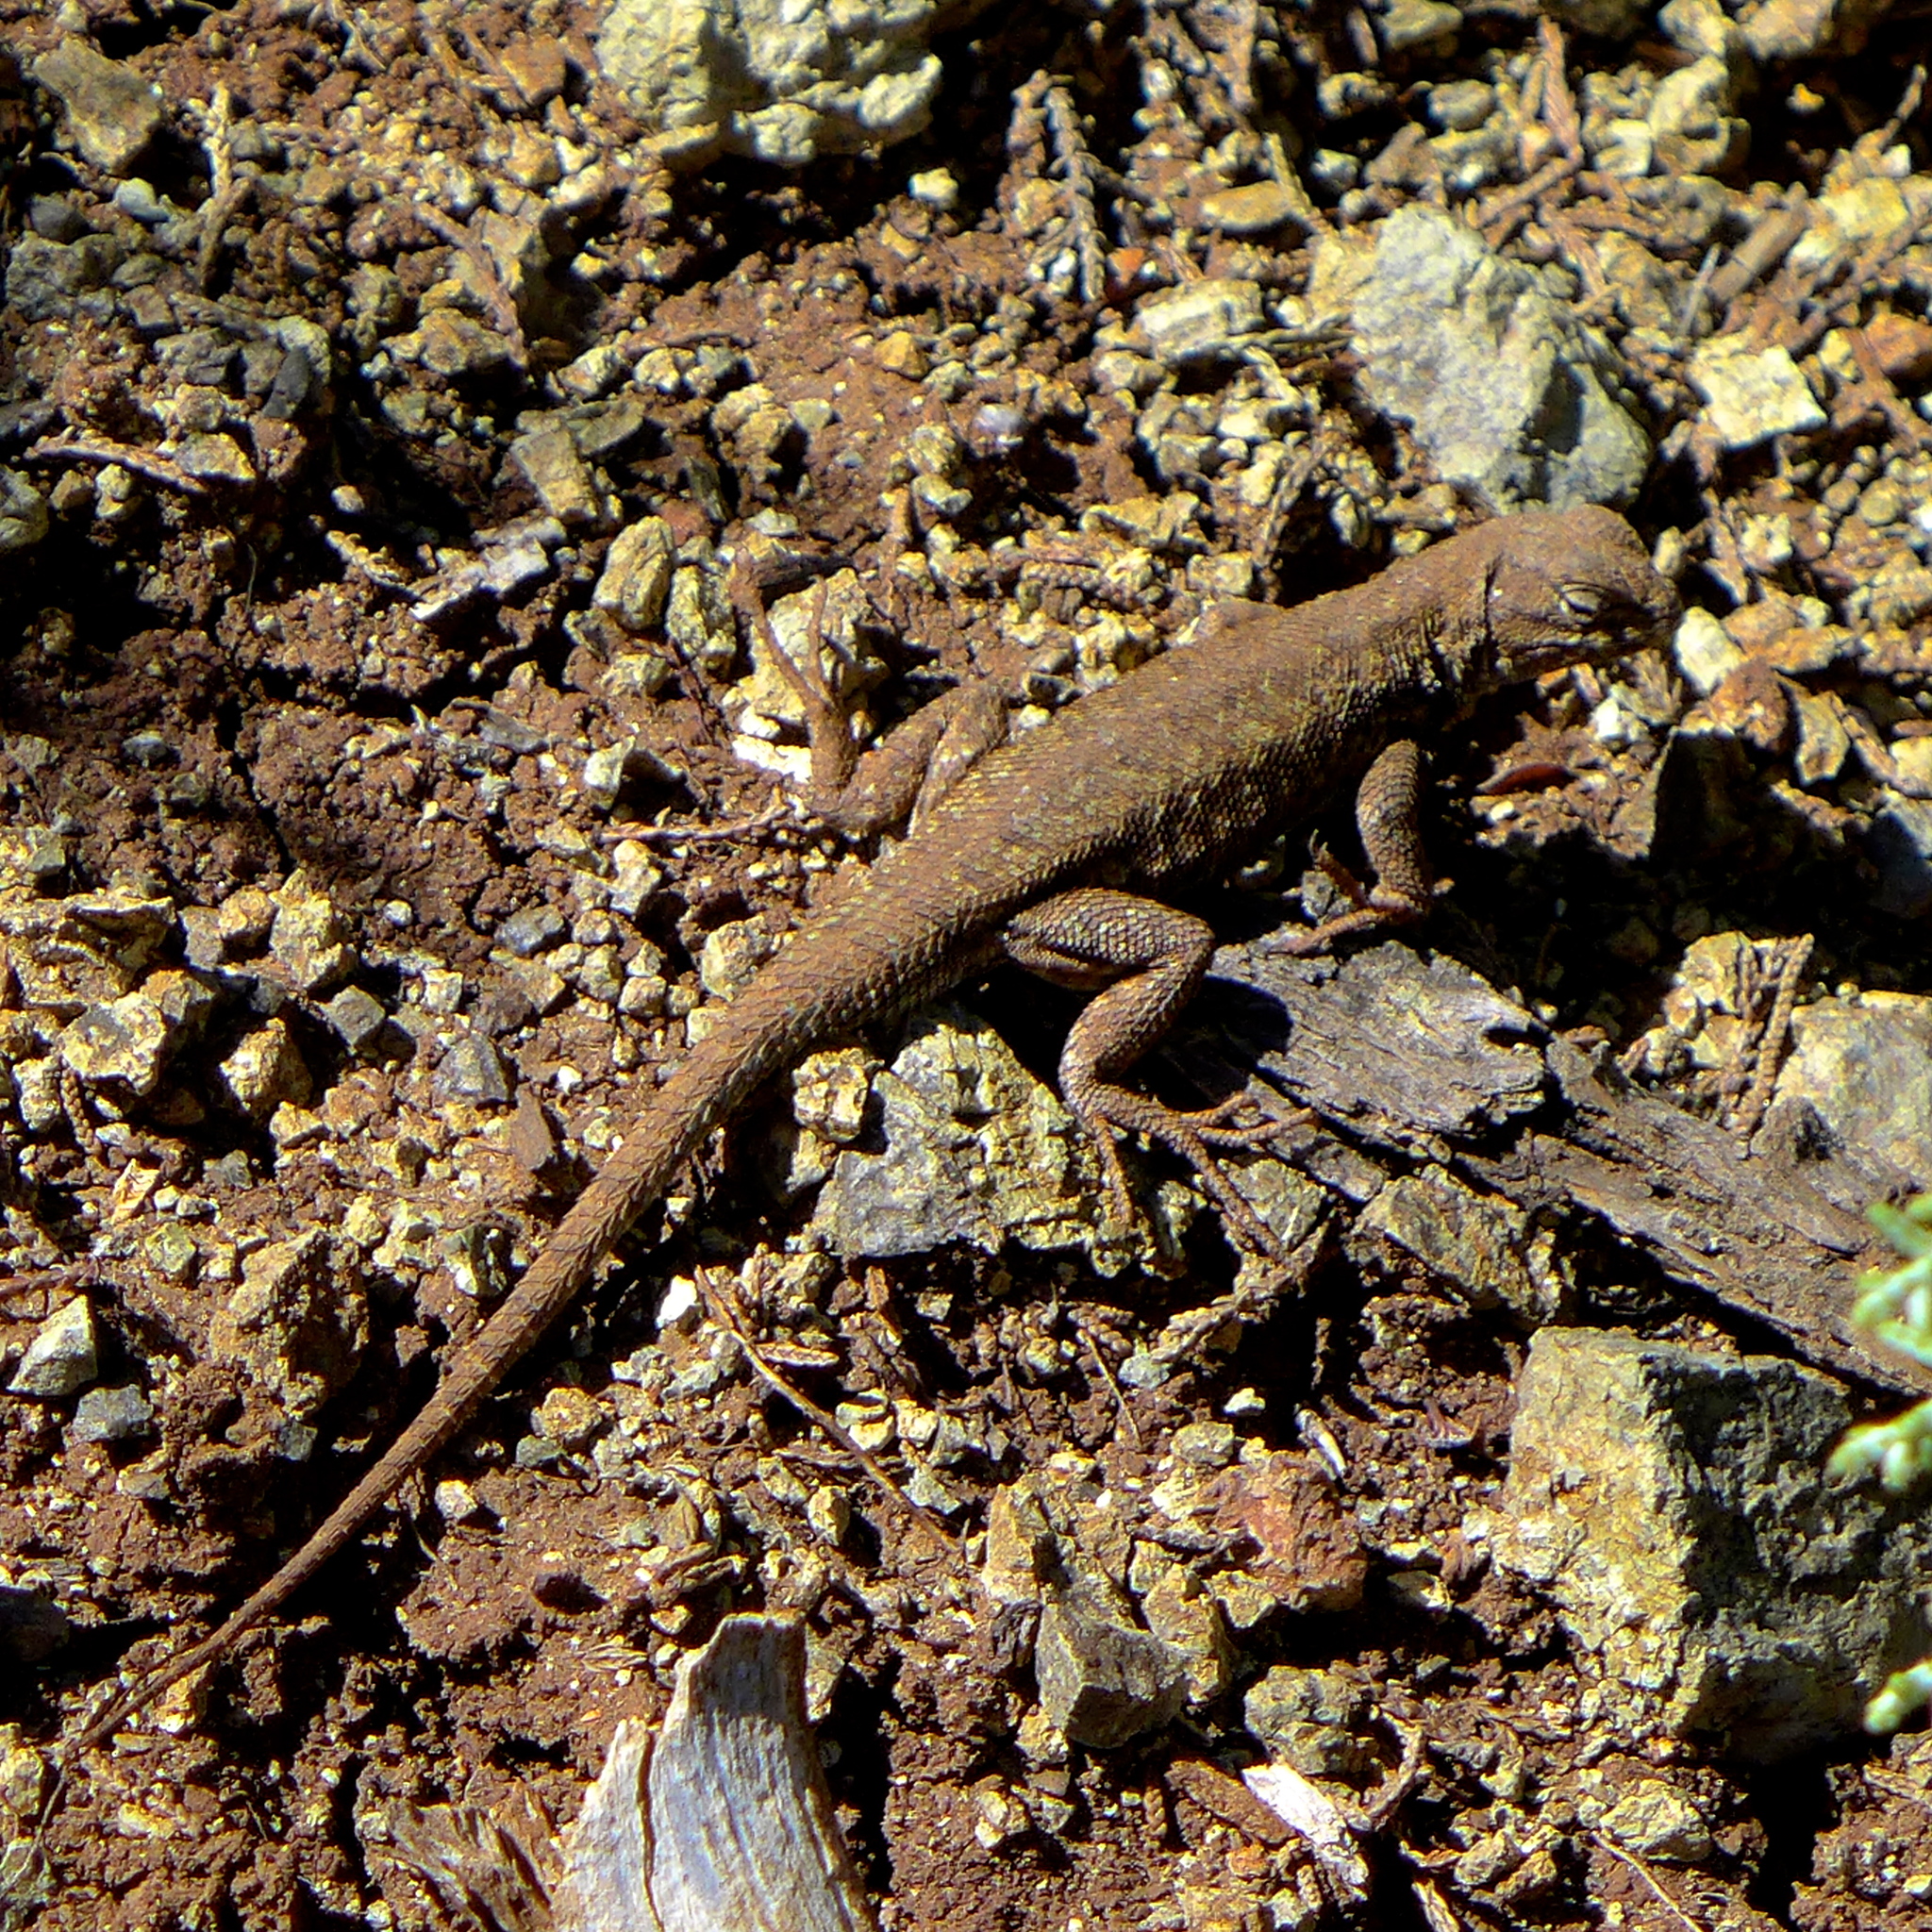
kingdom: Animalia
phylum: Chordata
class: Squamata
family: Phrynosomatidae
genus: Sceloporus
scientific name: Sceloporus occidentalis
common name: Western fence lizard
